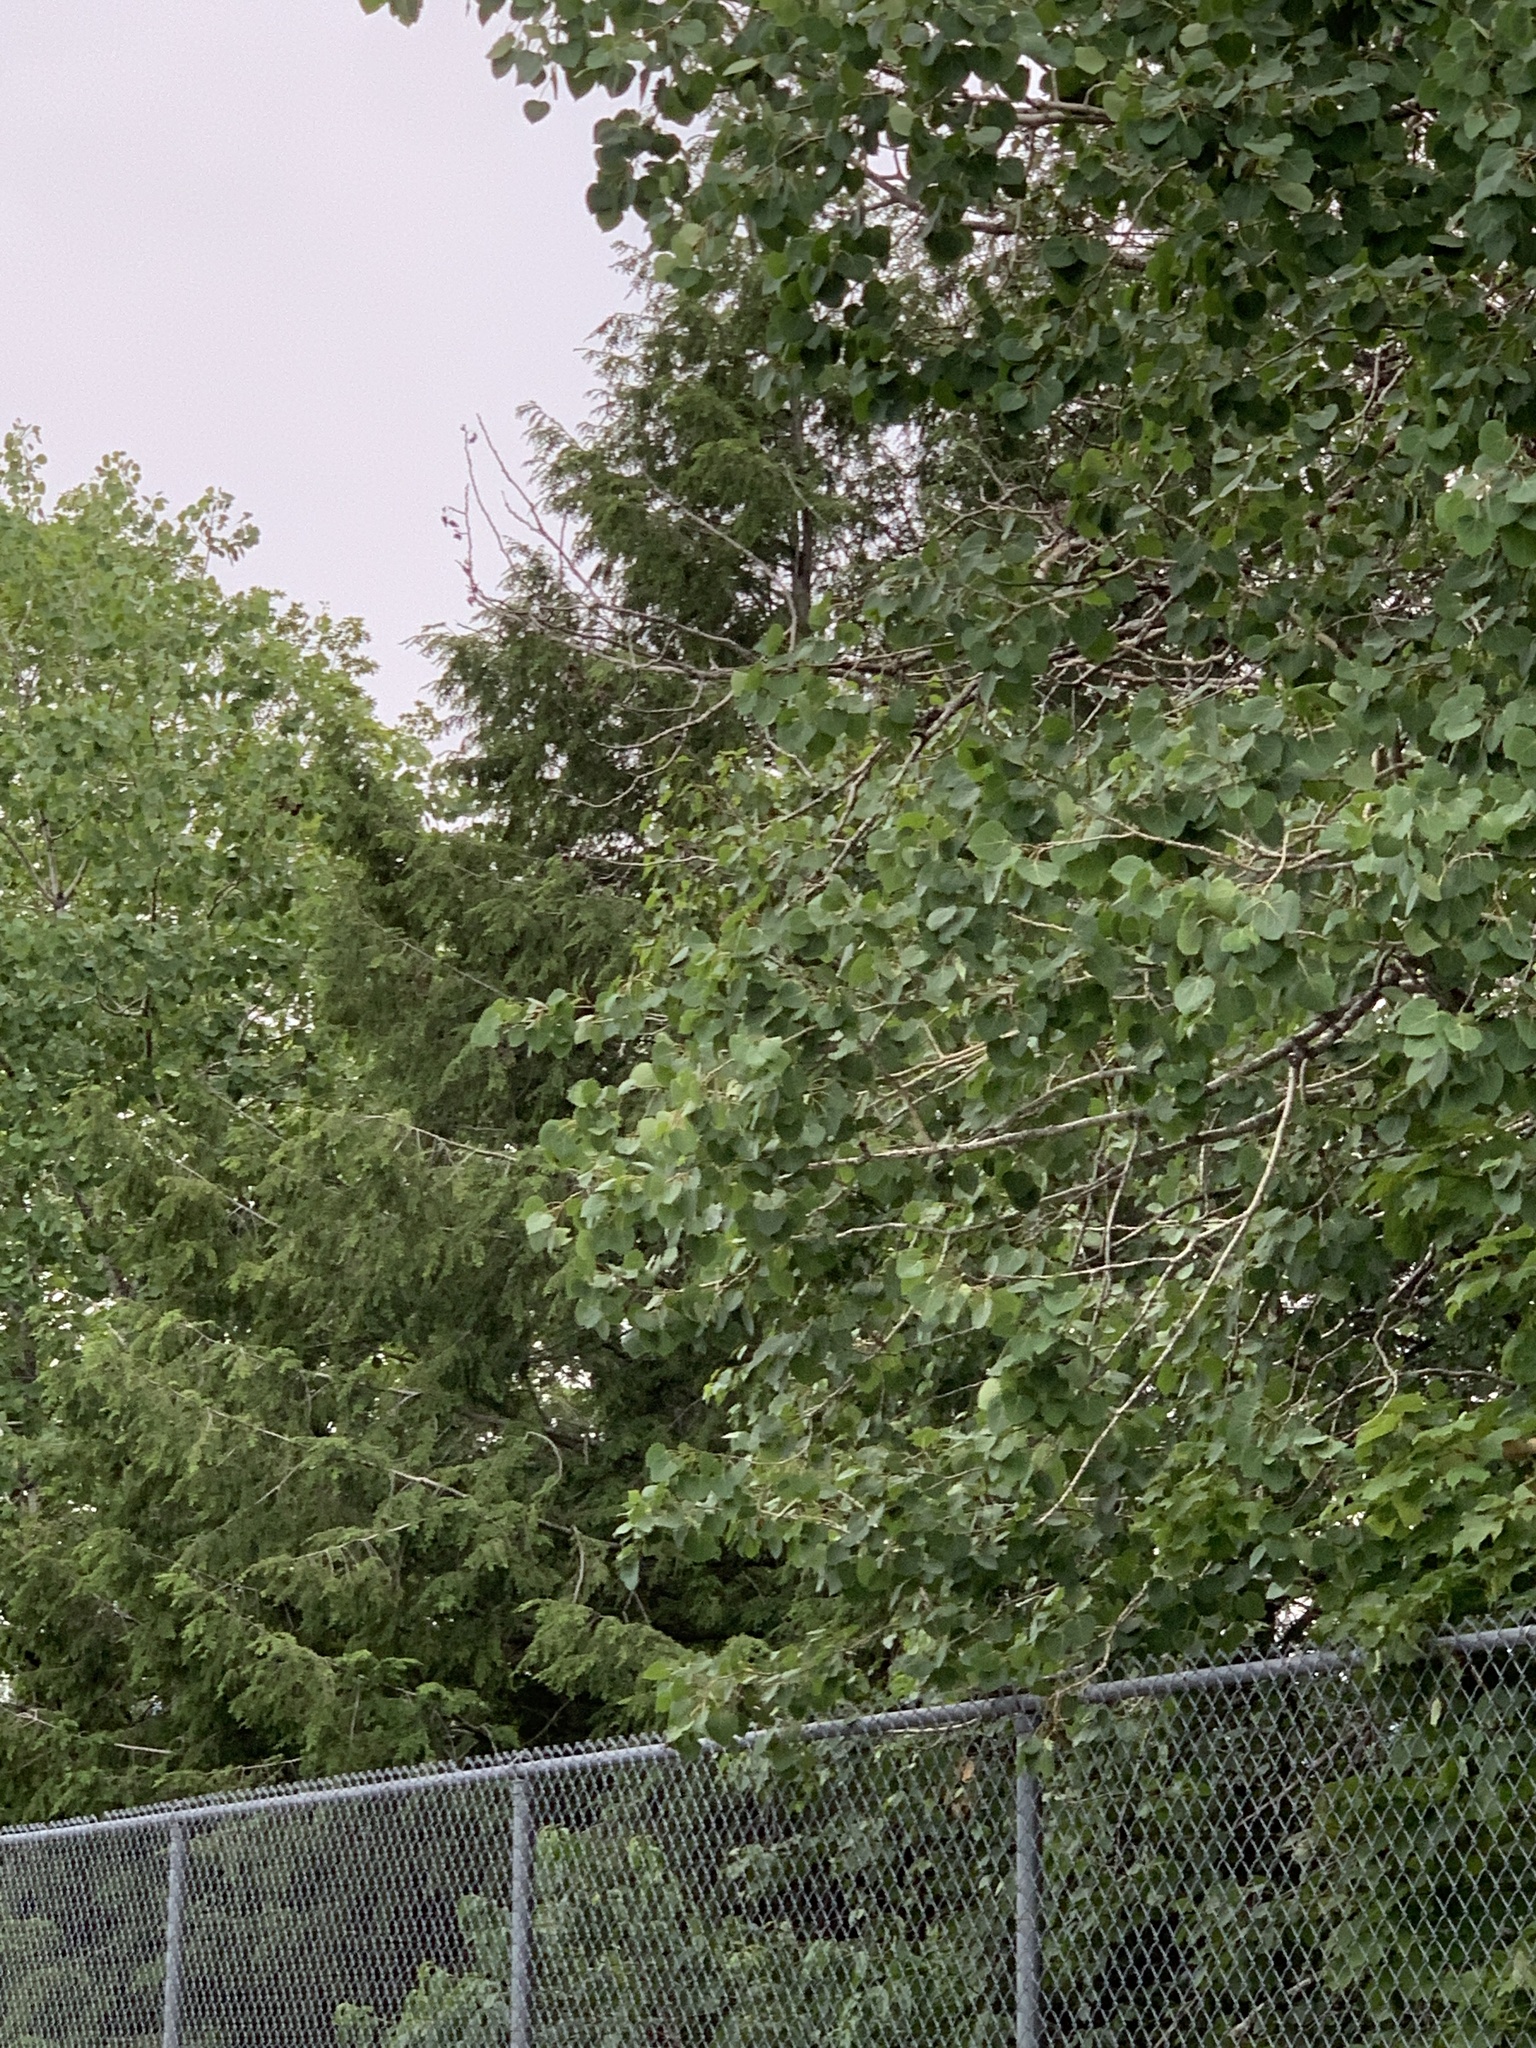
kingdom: Plantae
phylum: Tracheophyta
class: Pinopsida
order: Pinales
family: Pinaceae
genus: Tsuga
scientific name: Tsuga canadensis
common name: Eastern hemlock
